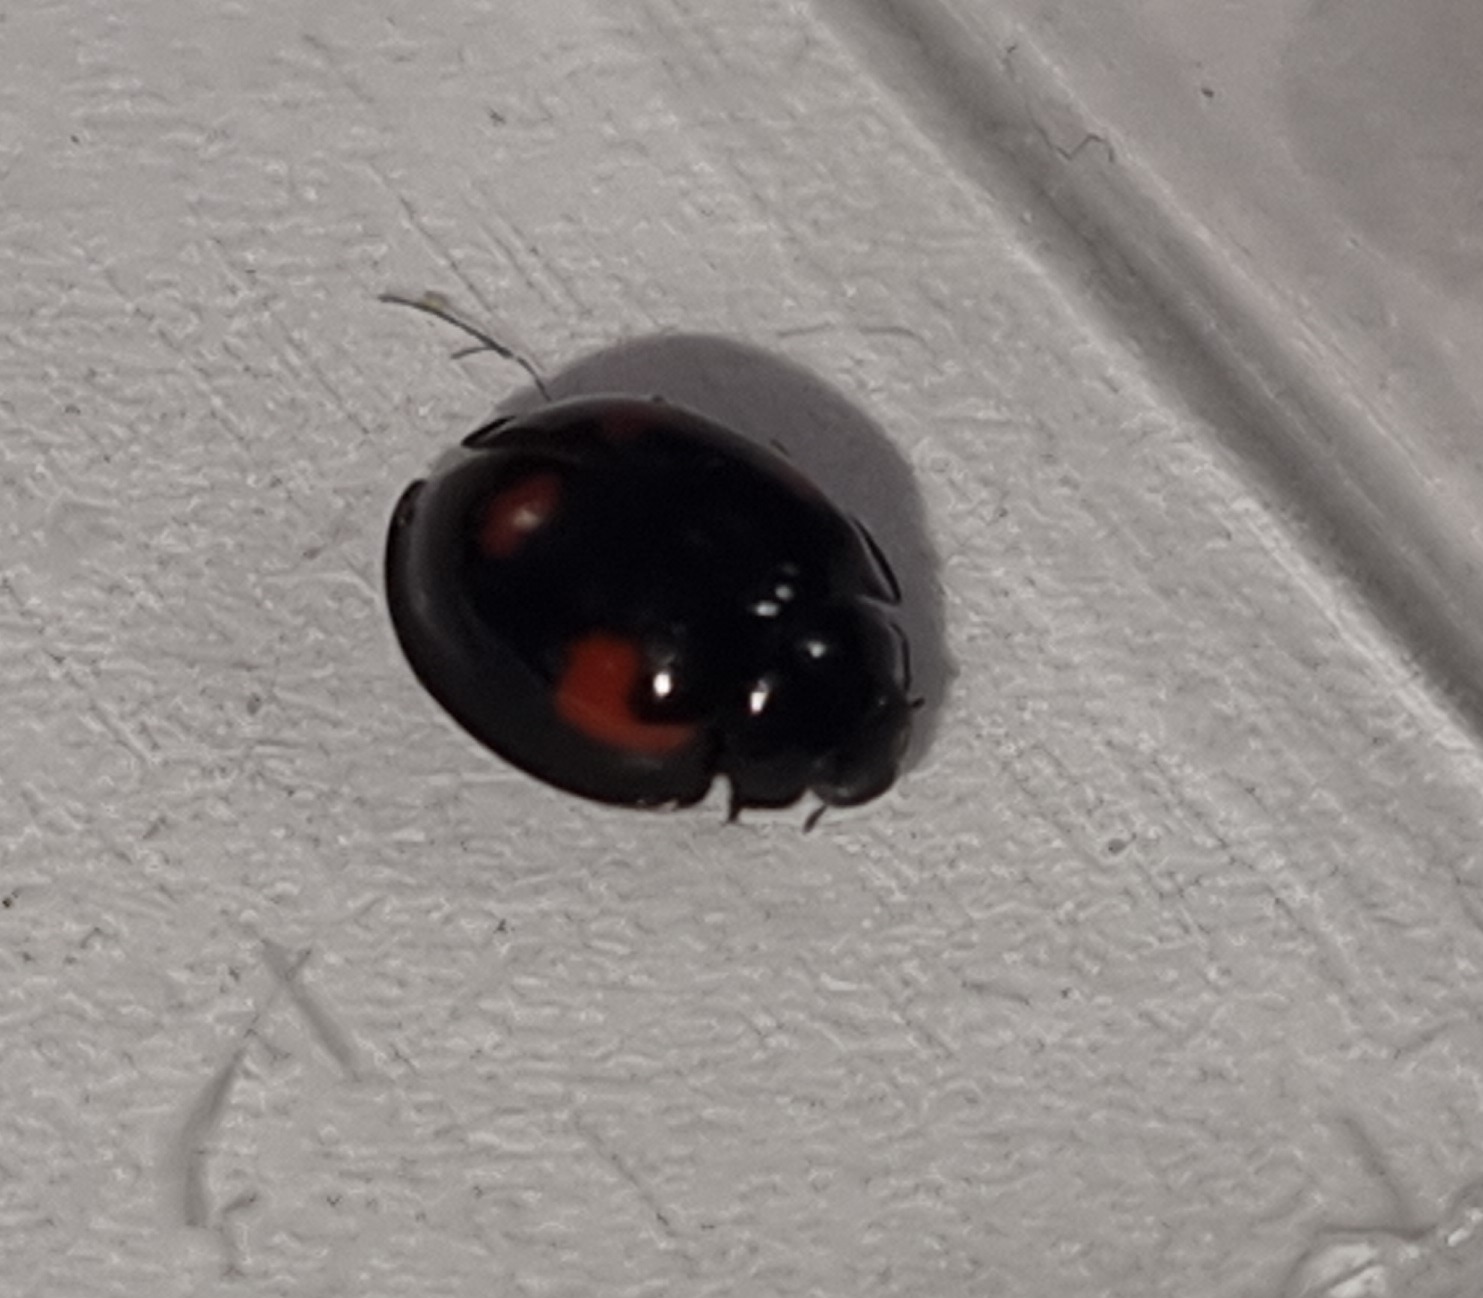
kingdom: Animalia
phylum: Arthropoda
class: Insecta
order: Coleoptera
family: Coccinellidae
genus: Brumus
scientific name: Brumus quadripustulatus
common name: Ladybird beetle
